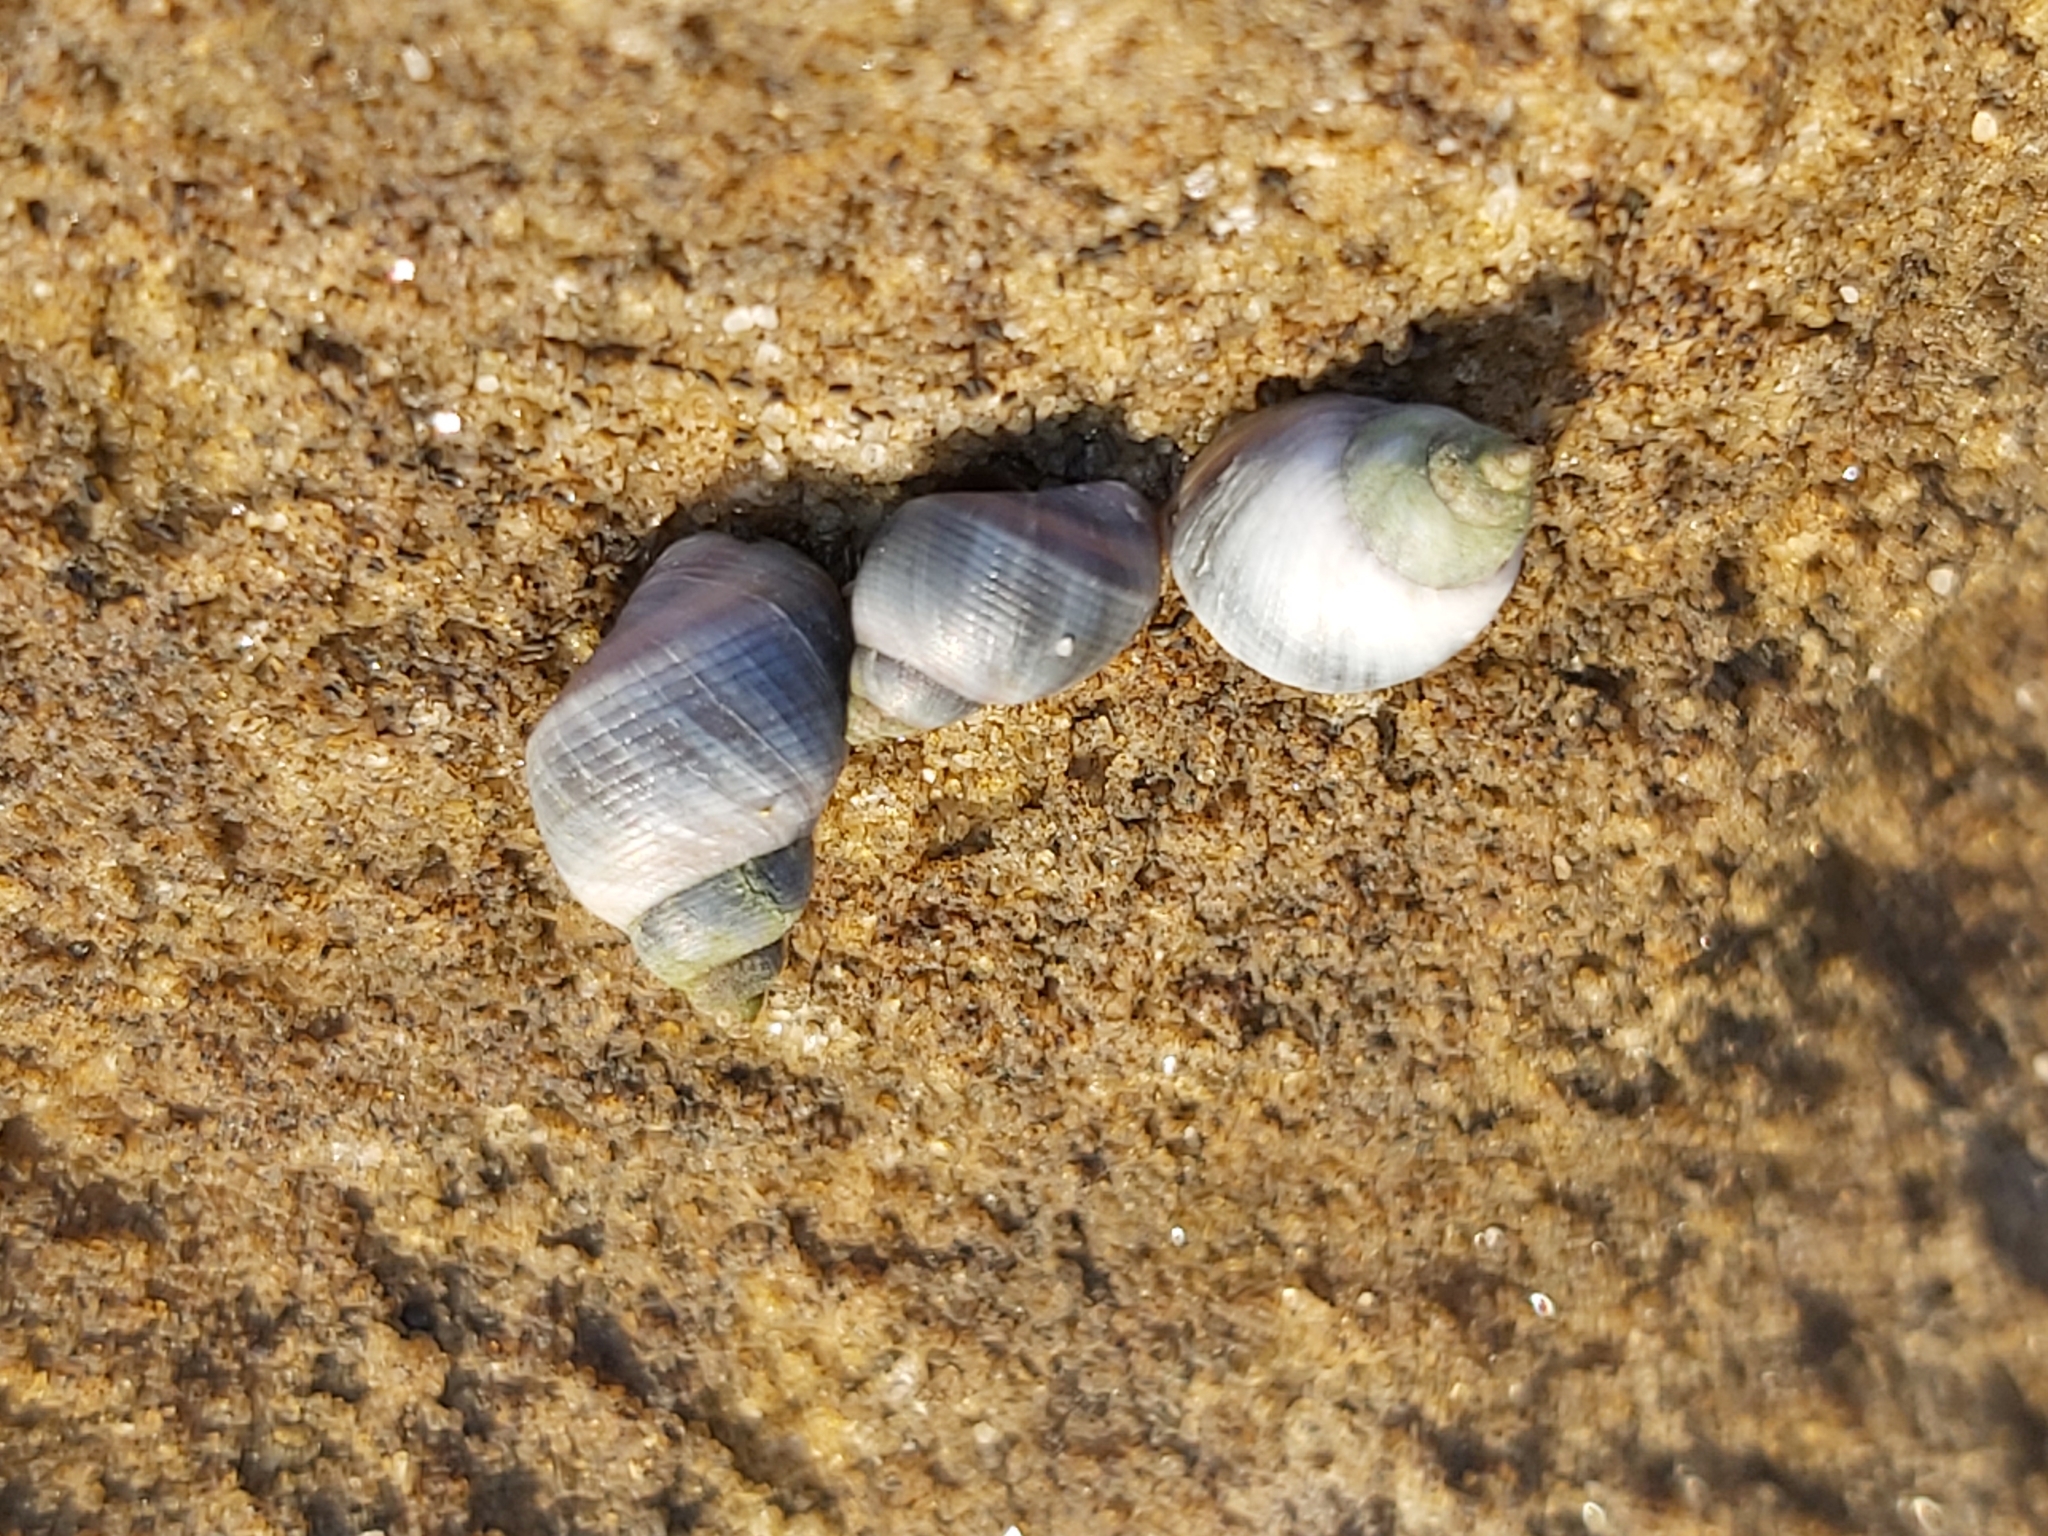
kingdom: Animalia
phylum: Mollusca
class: Gastropoda
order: Littorinimorpha
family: Littorinidae
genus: Austrolittorina
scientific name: Austrolittorina unifasciata
